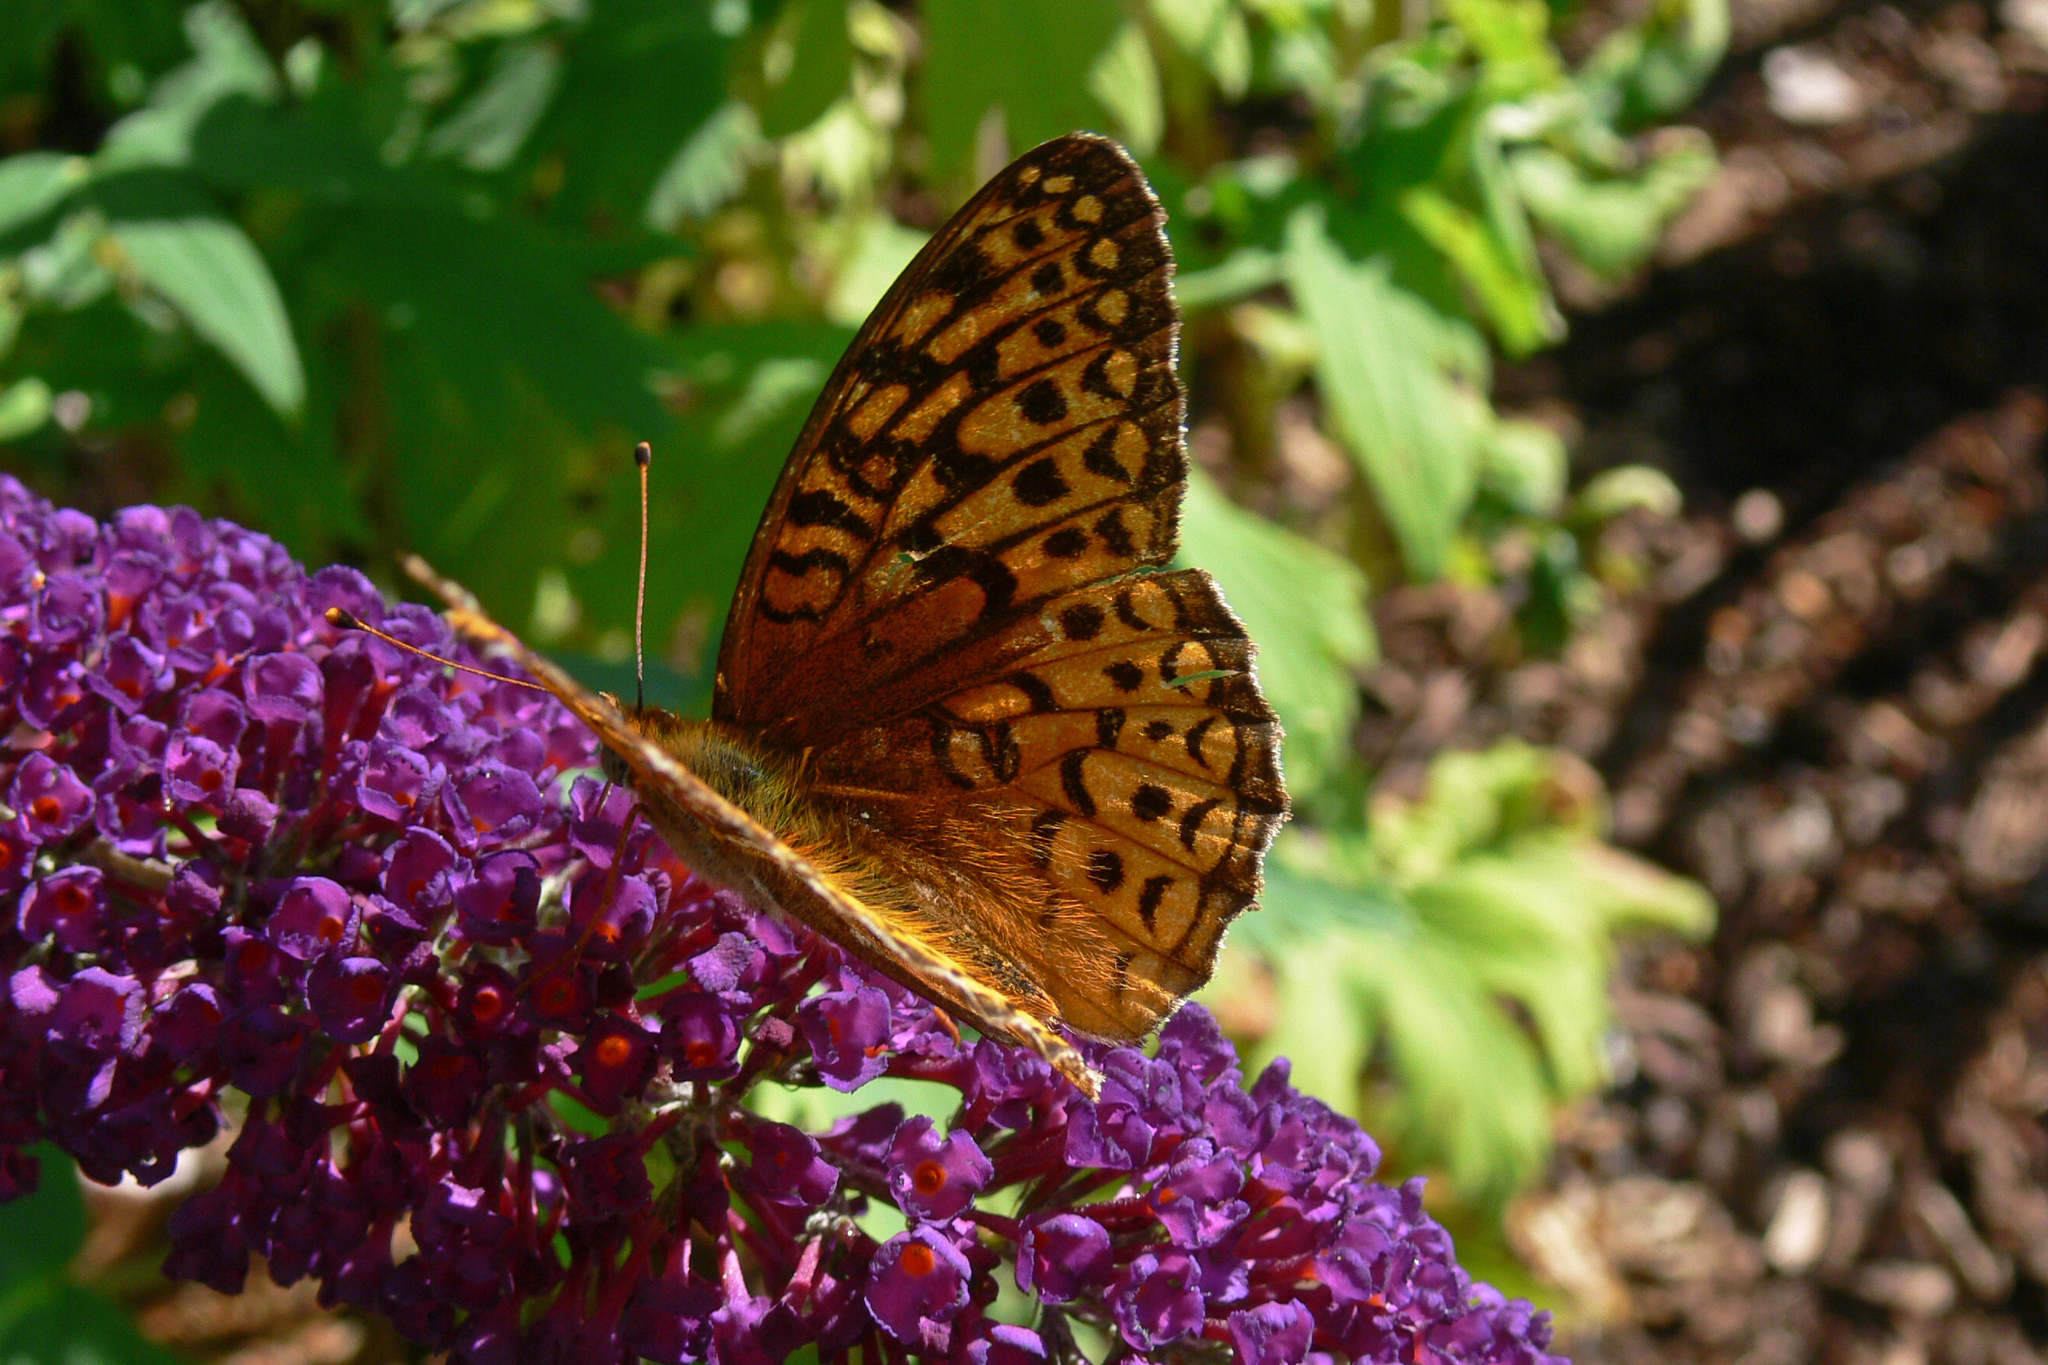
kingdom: Animalia
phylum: Arthropoda
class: Insecta
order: Lepidoptera
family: Nymphalidae
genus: Speyeria
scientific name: Speyeria atlantis
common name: Atlantis fritillary
